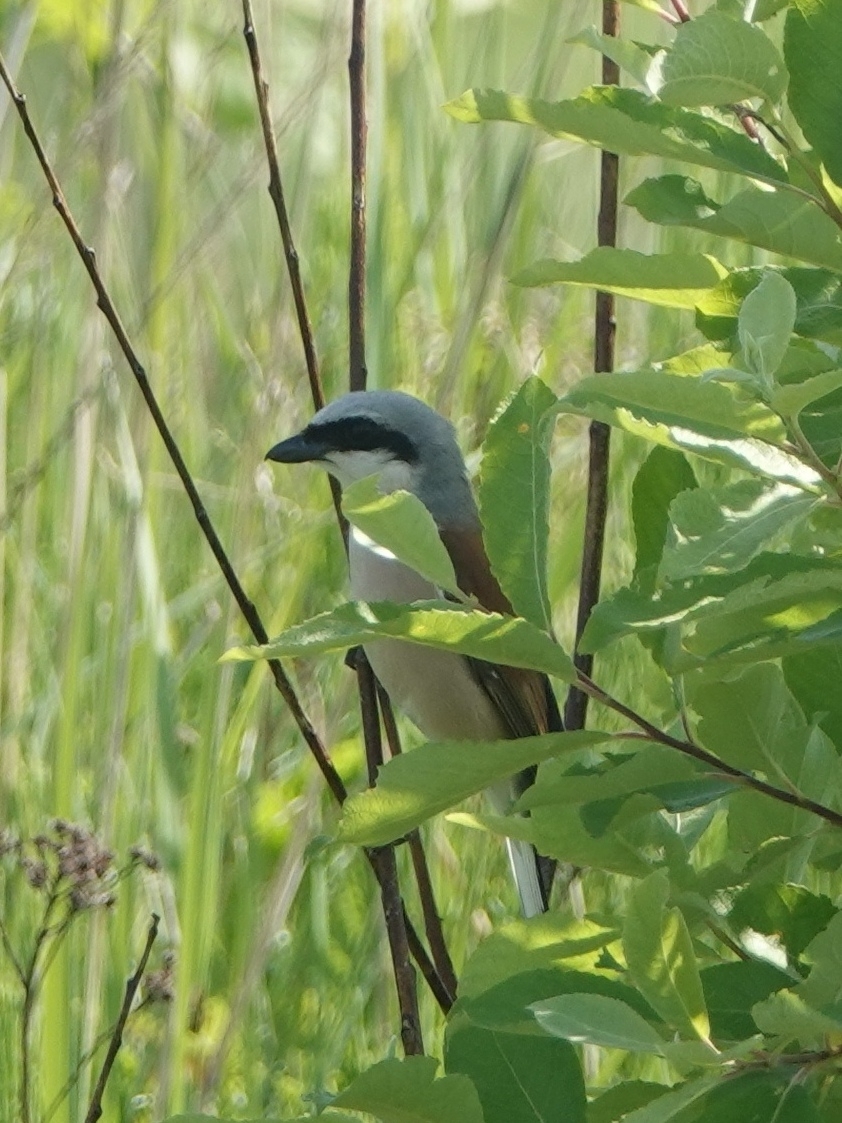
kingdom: Animalia
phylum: Chordata
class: Aves
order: Passeriformes
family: Laniidae
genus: Lanius
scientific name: Lanius collurio
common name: Red-backed shrike
